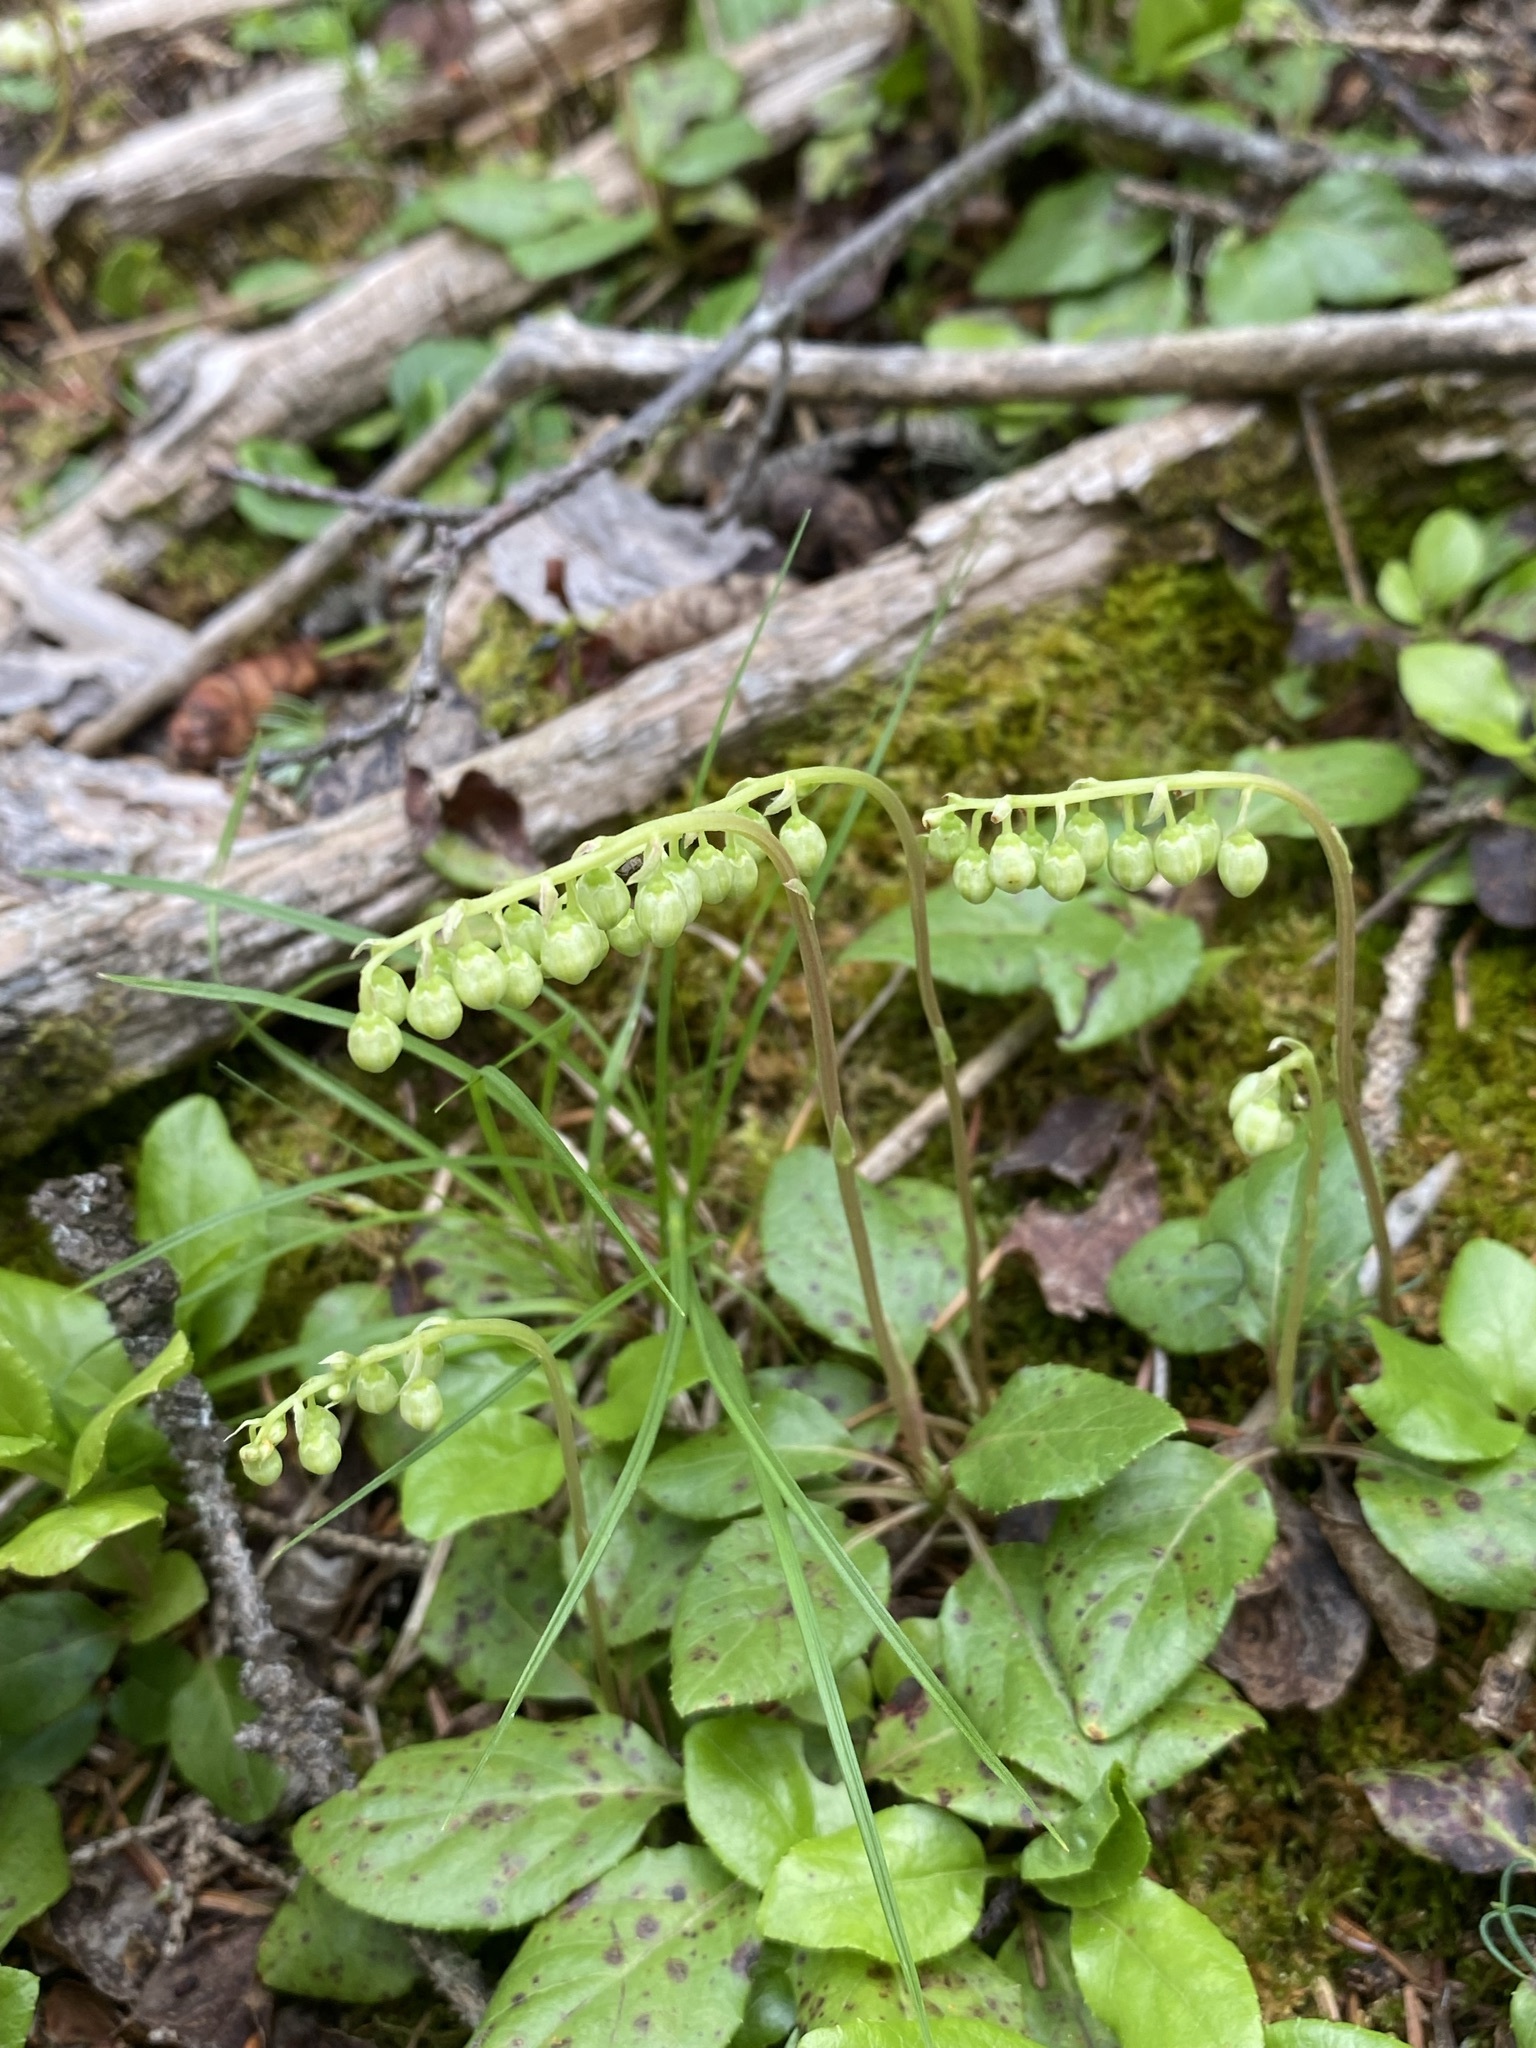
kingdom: Plantae
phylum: Tracheophyta
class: Magnoliopsida
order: Ericales
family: Ericaceae
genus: Orthilia
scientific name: Orthilia secunda
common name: One-sided orthilia
